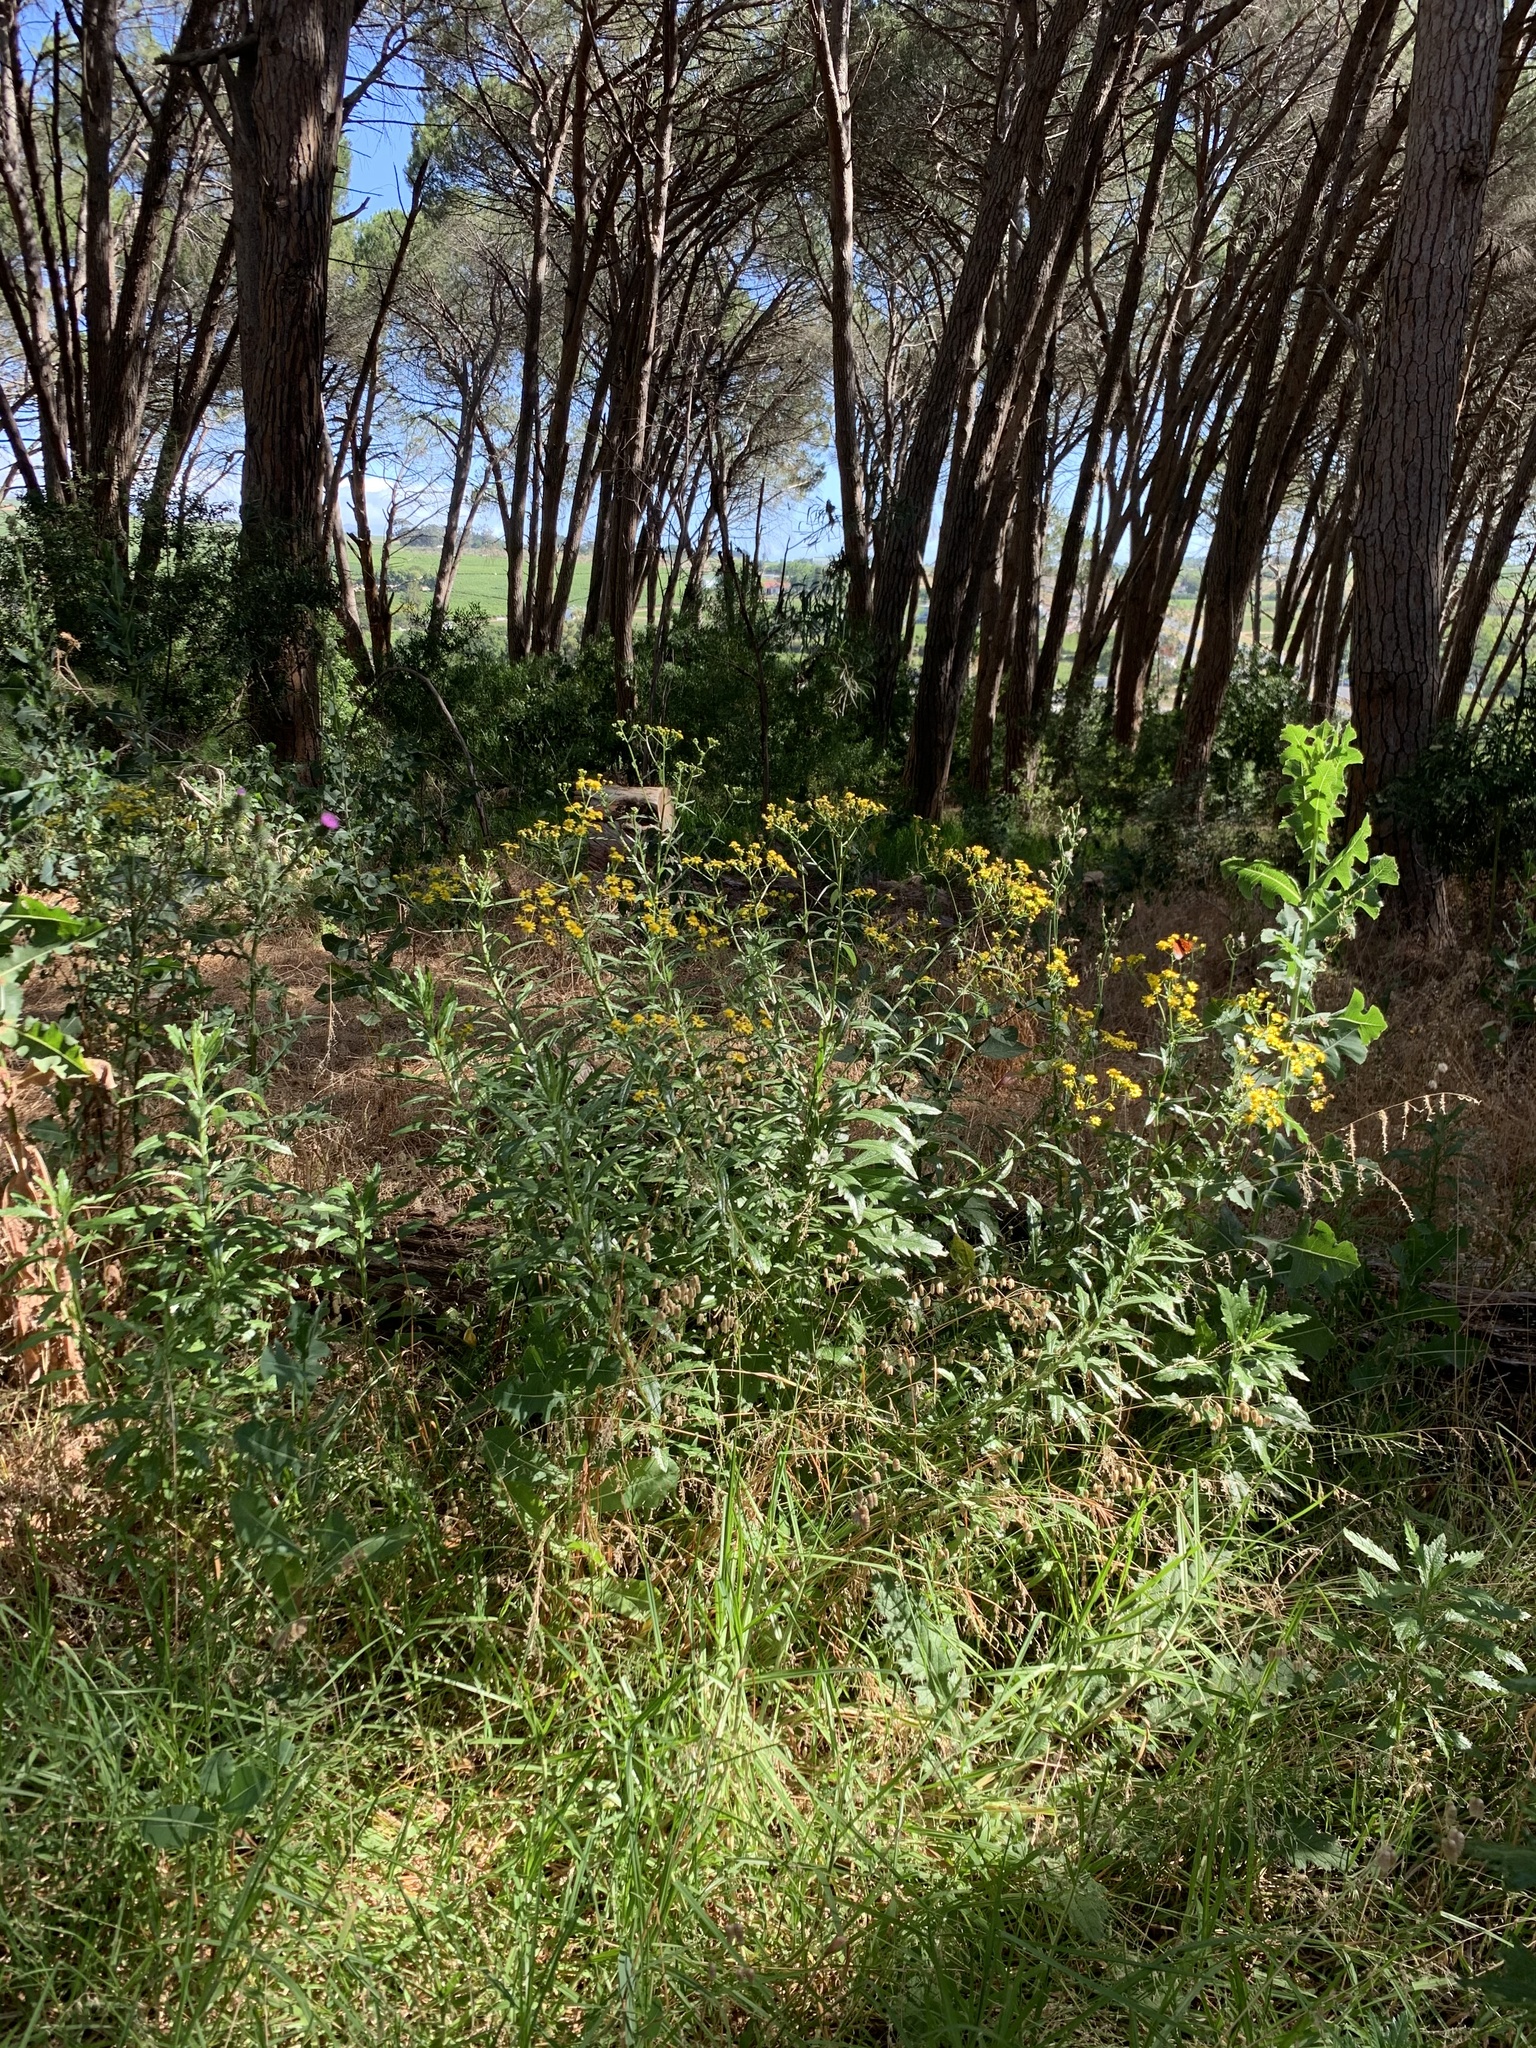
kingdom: Plantae
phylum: Tracheophyta
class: Magnoliopsida
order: Asterales
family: Asteraceae
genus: Senecio
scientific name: Senecio pterophorus
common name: Shoddy ragwort
